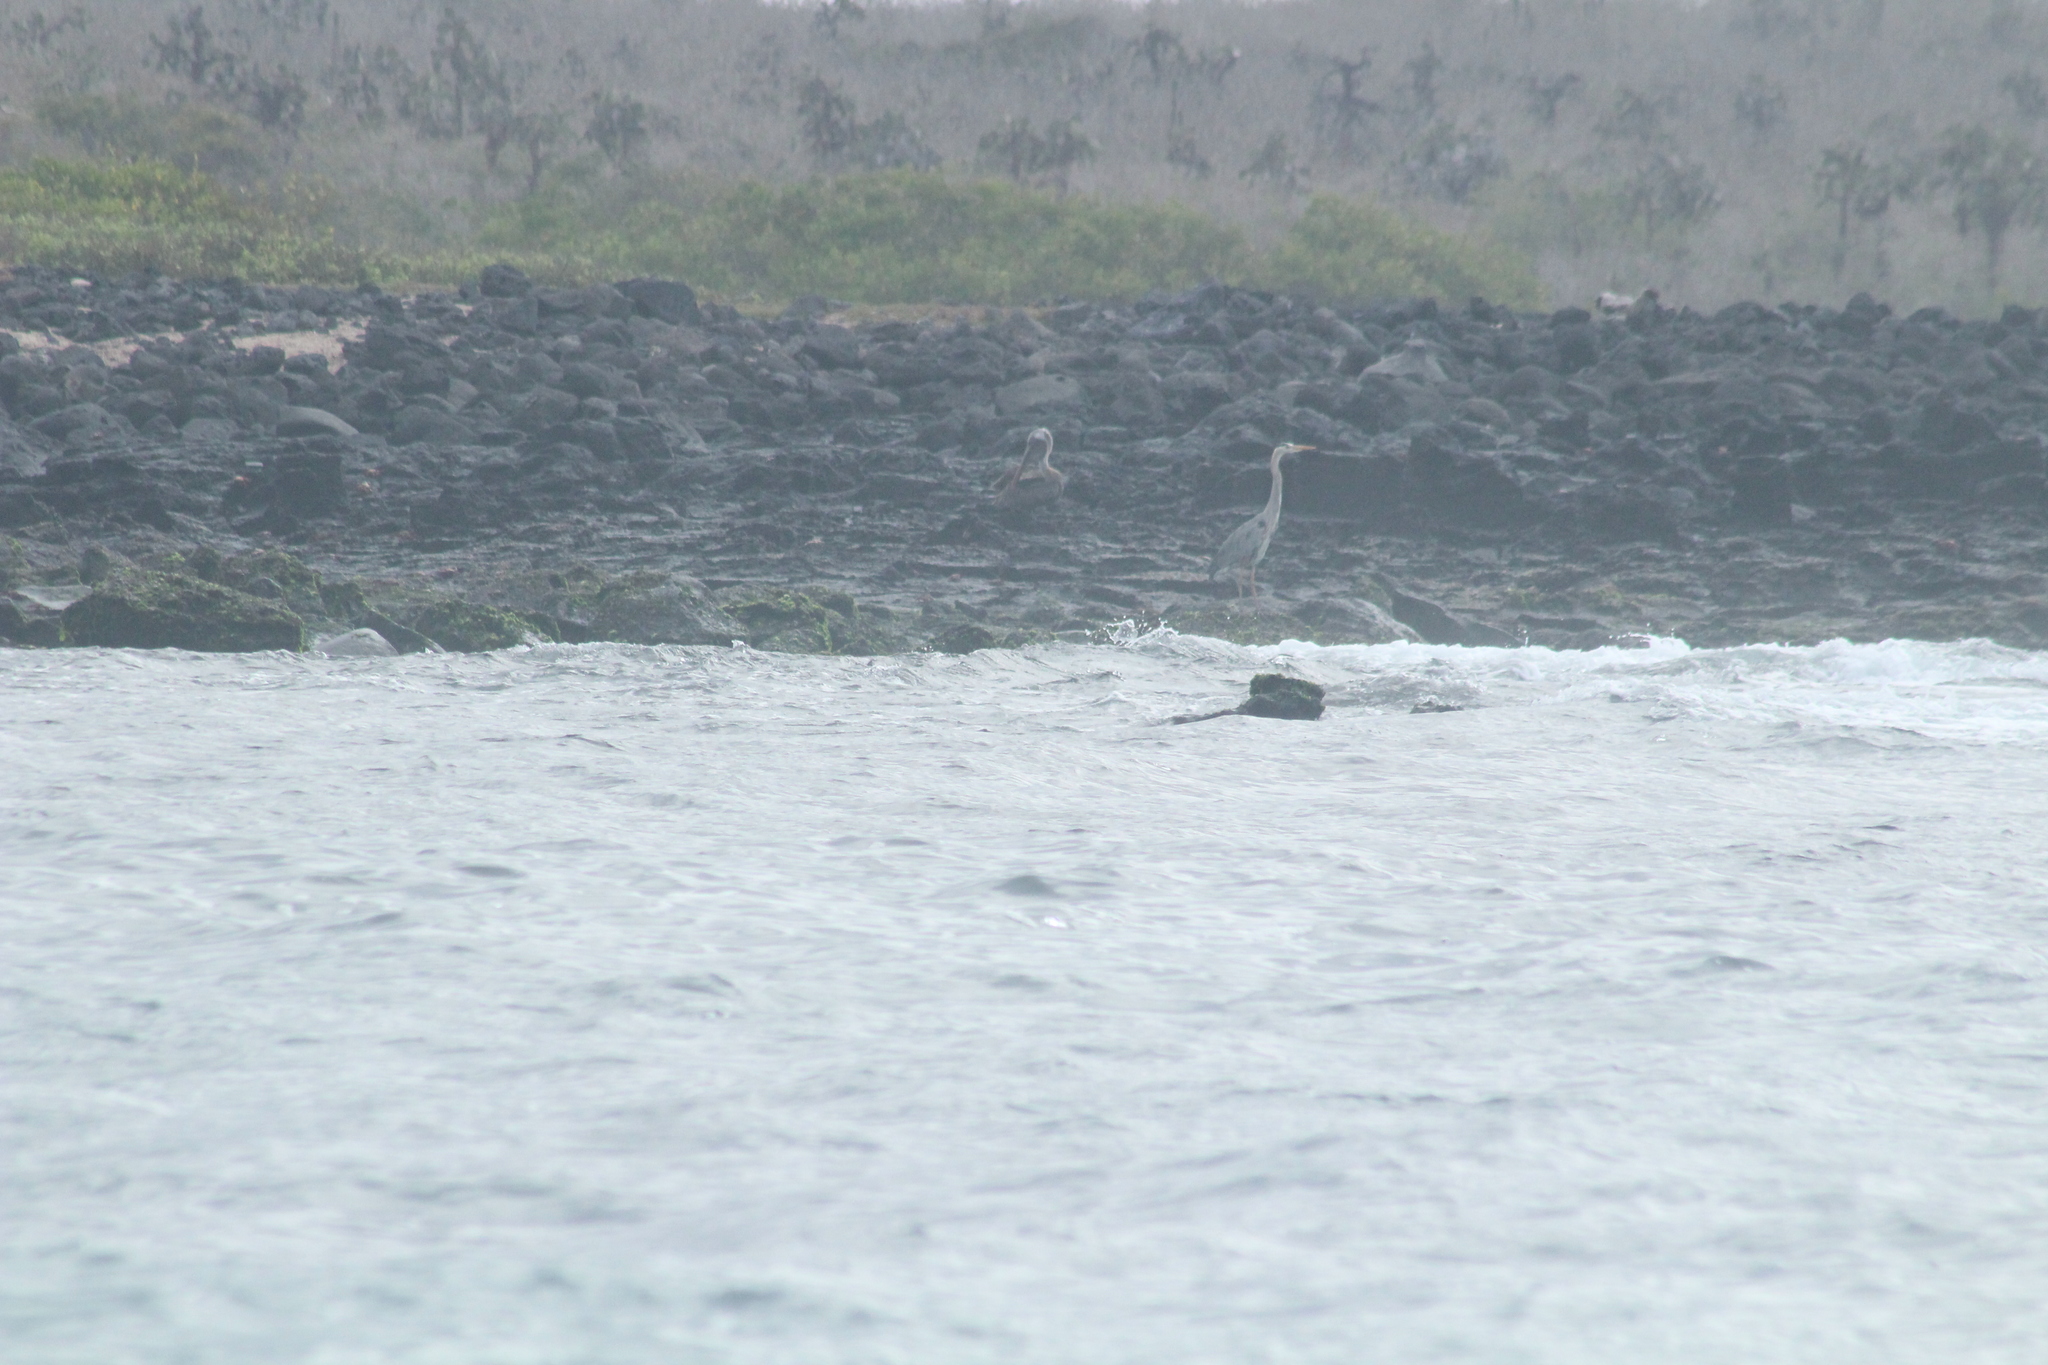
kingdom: Animalia
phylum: Chordata
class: Aves
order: Pelecaniformes
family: Pelecanidae
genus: Pelecanus
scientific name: Pelecanus occidentalis
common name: Brown pelican
